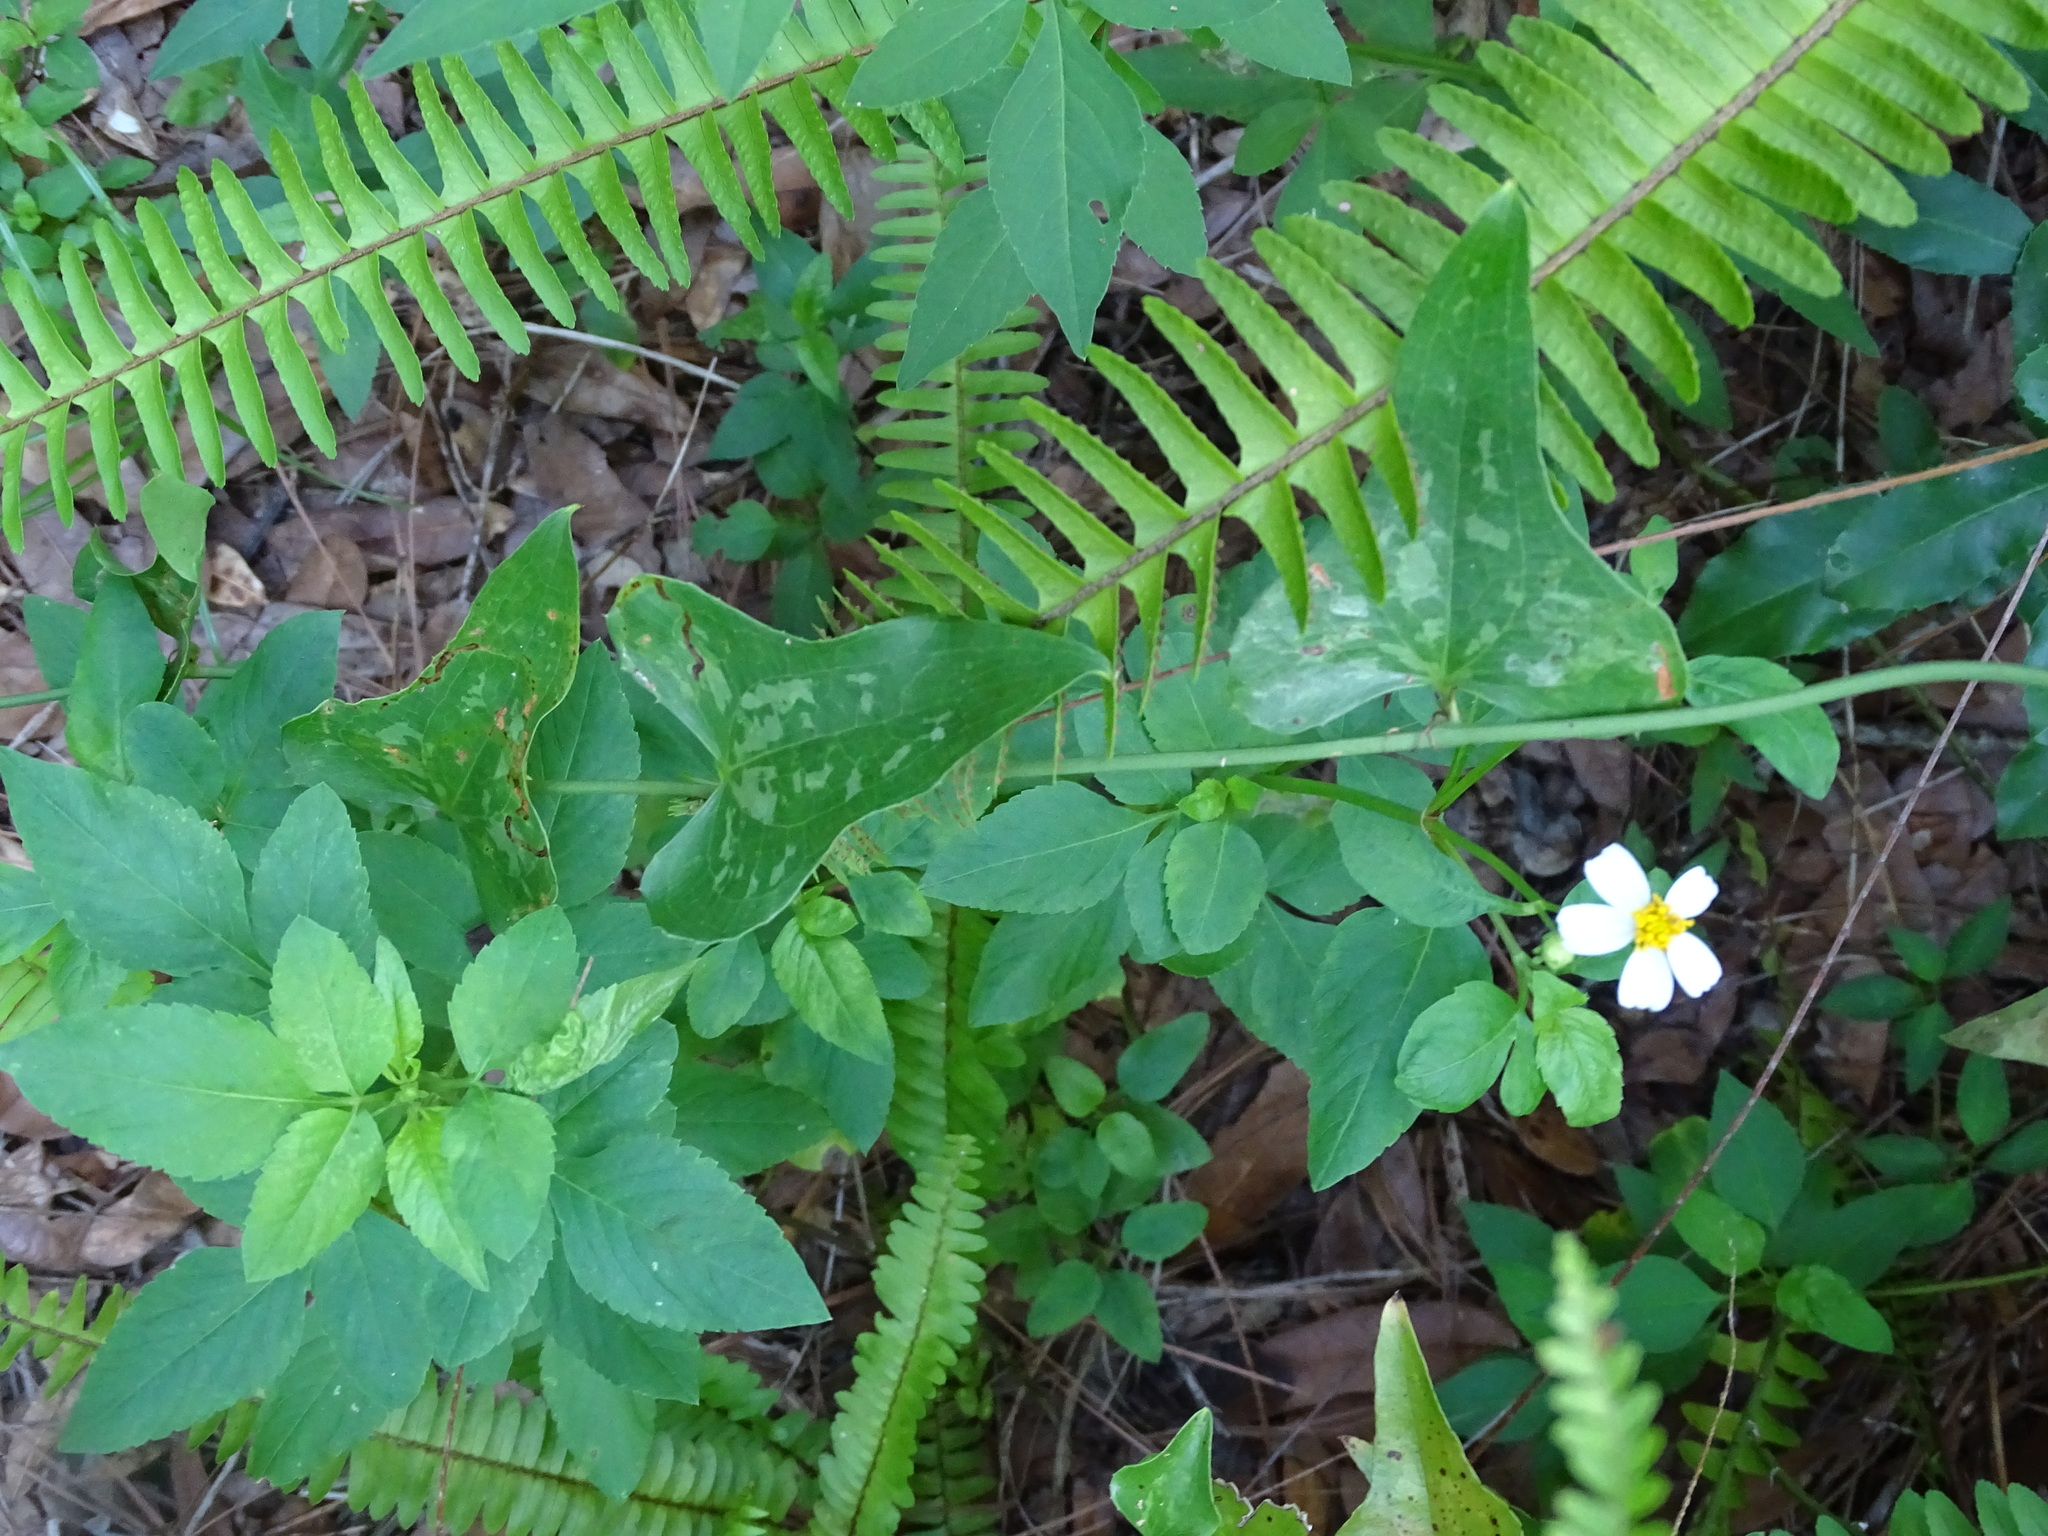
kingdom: Plantae
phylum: Tracheophyta
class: Liliopsida
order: Liliales
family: Smilacaceae
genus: Smilax
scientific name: Smilax bona-nox
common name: Catbrier
